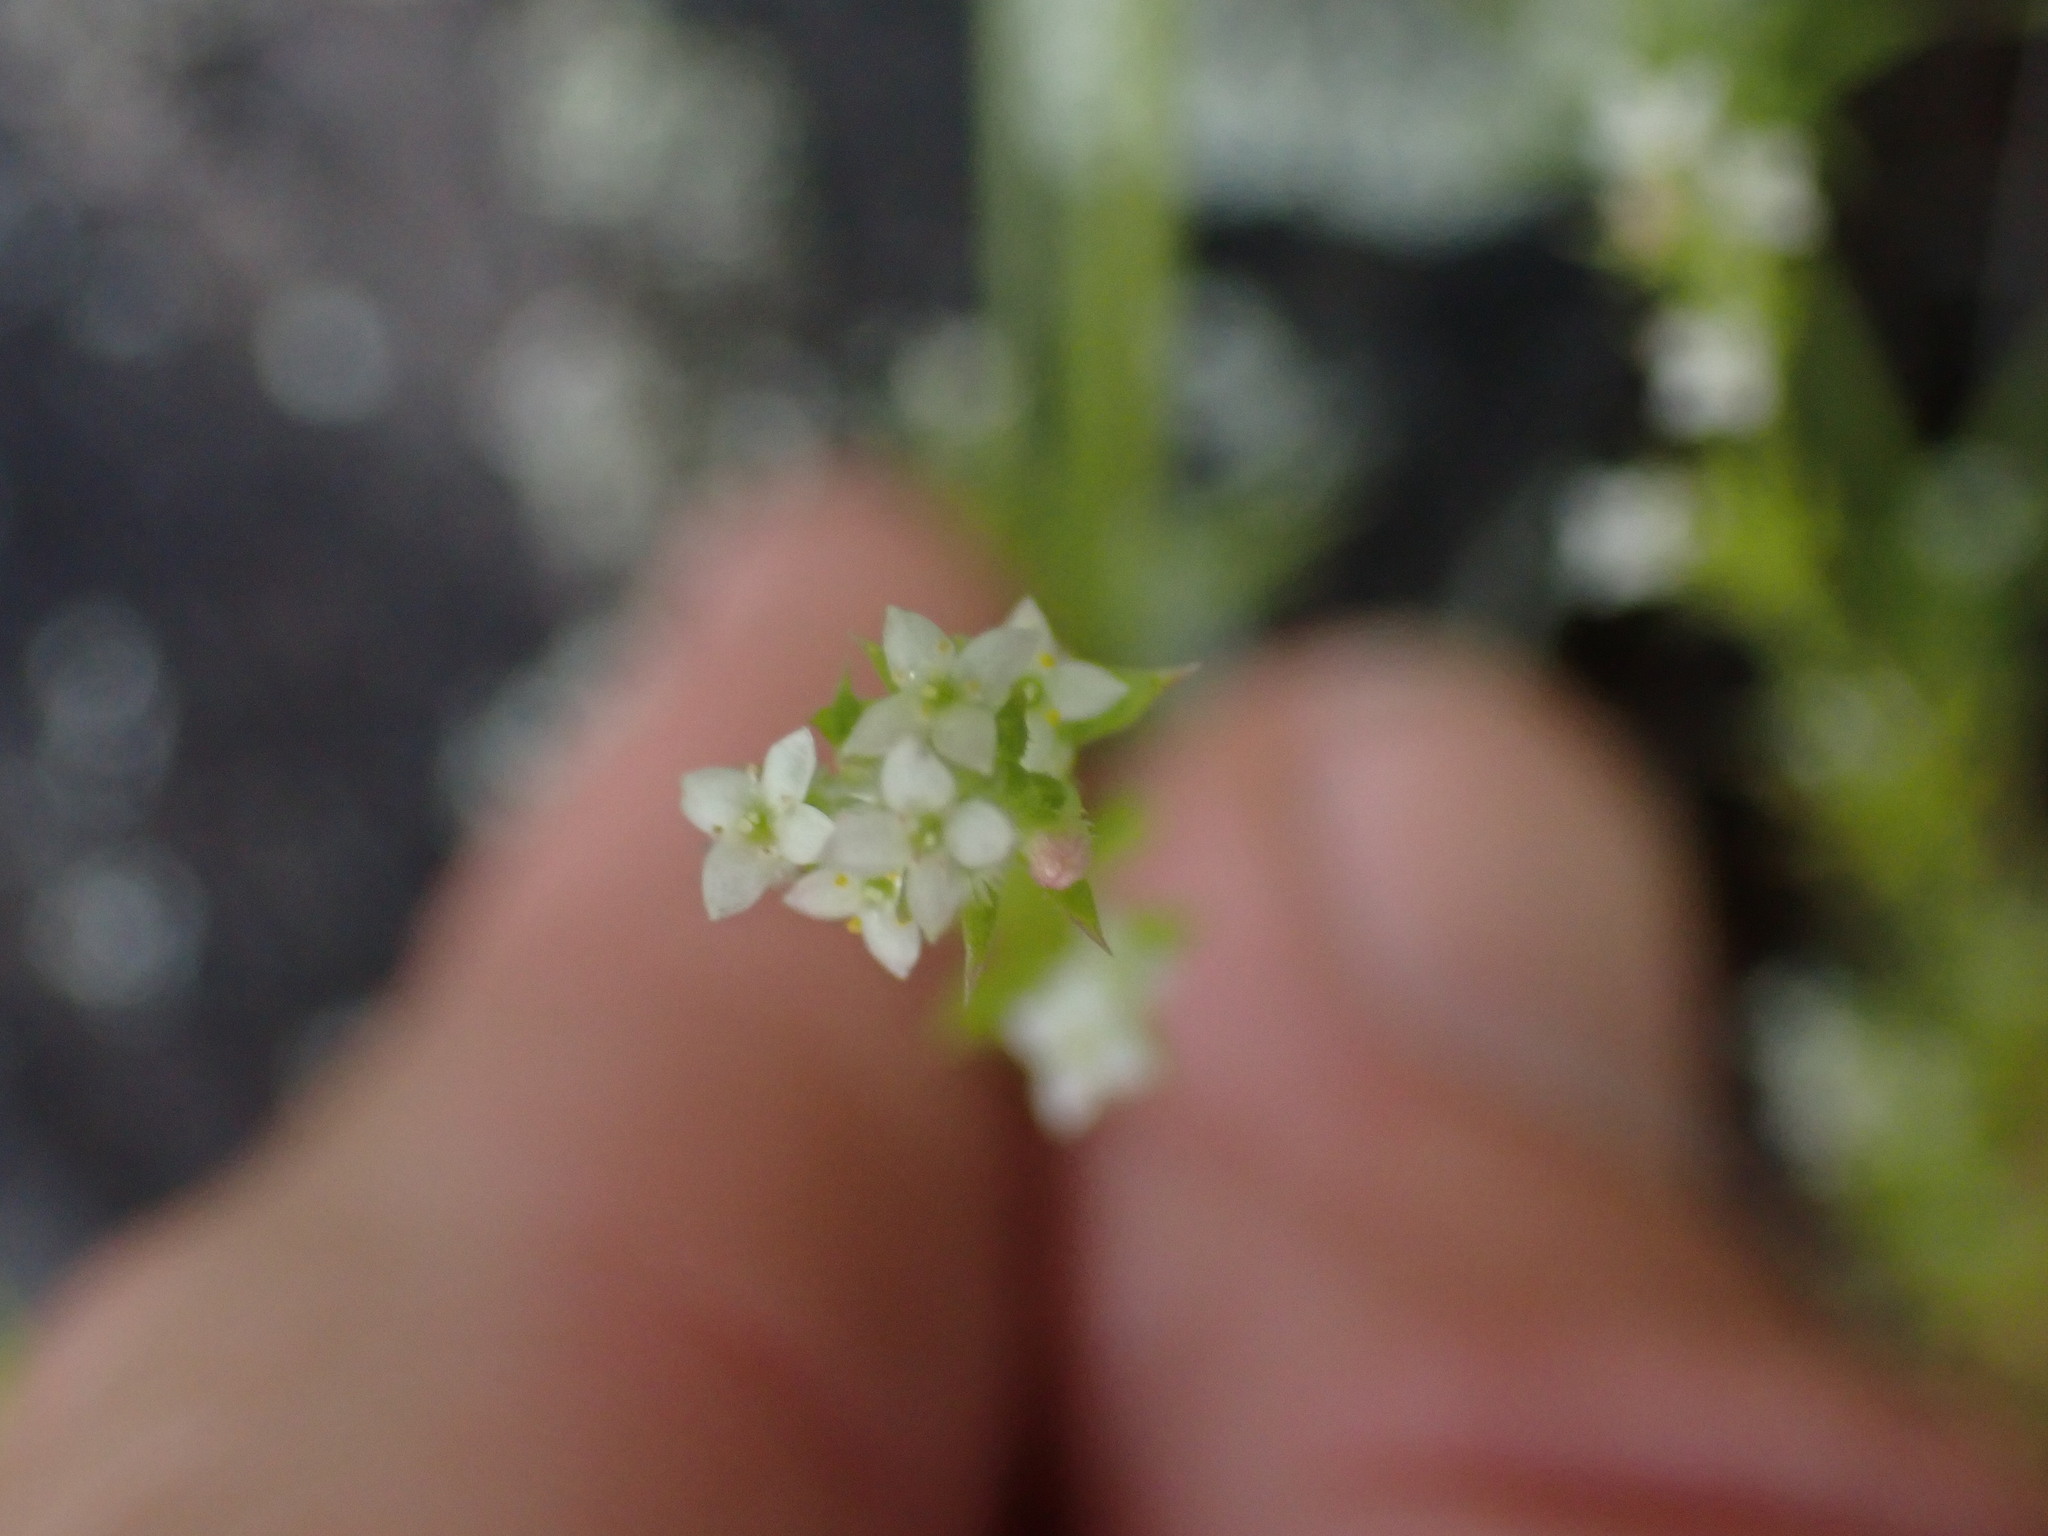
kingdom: Plantae
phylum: Tracheophyta
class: Magnoliopsida
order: Gentianales
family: Rubiaceae
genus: Galium
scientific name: Galium aparine
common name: Cleavers
